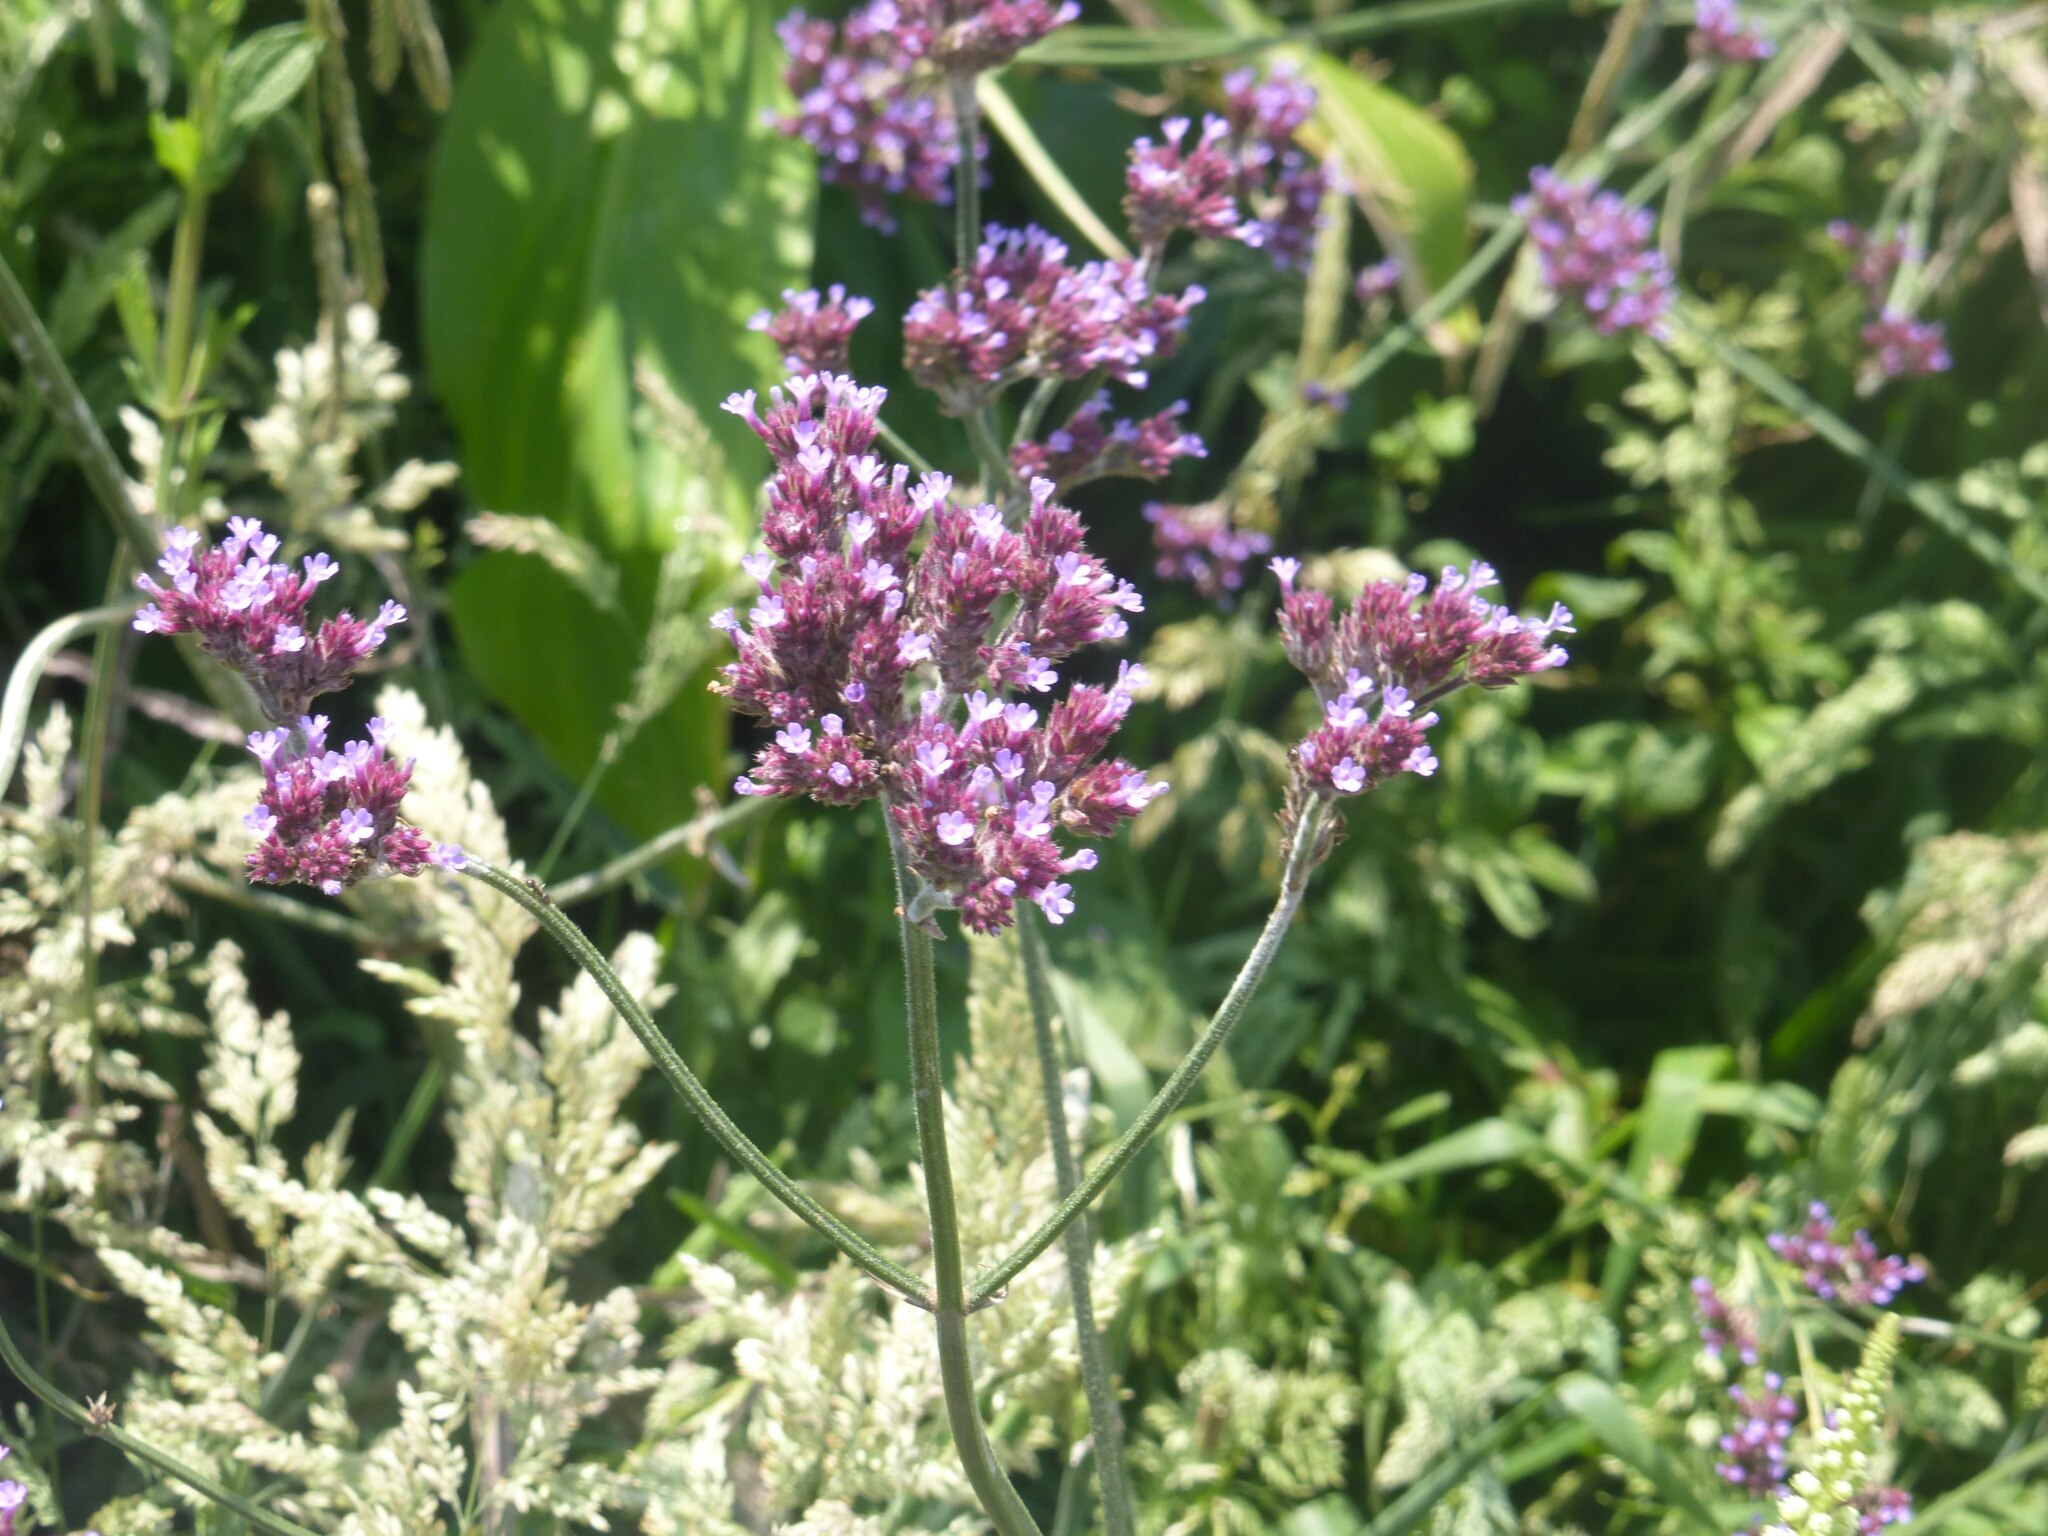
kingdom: Plantae
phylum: Tracheophyta
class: Magnoliopsida
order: Lamiales
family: Verbenaceae
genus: Verbena
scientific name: Verbena bonariensis
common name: Purpletop vervain
